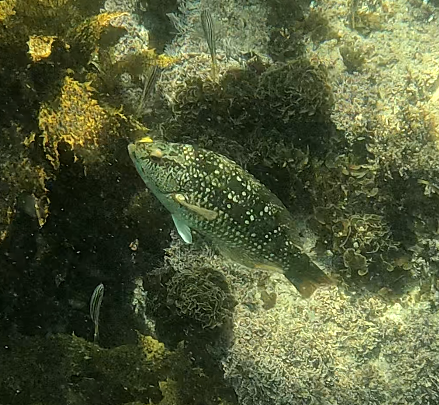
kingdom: Animalia
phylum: Chordata
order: Perciformes
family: Labridae
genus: Notolabrus
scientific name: Notolabrus gymnogenis
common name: Crimson banded wrasse
